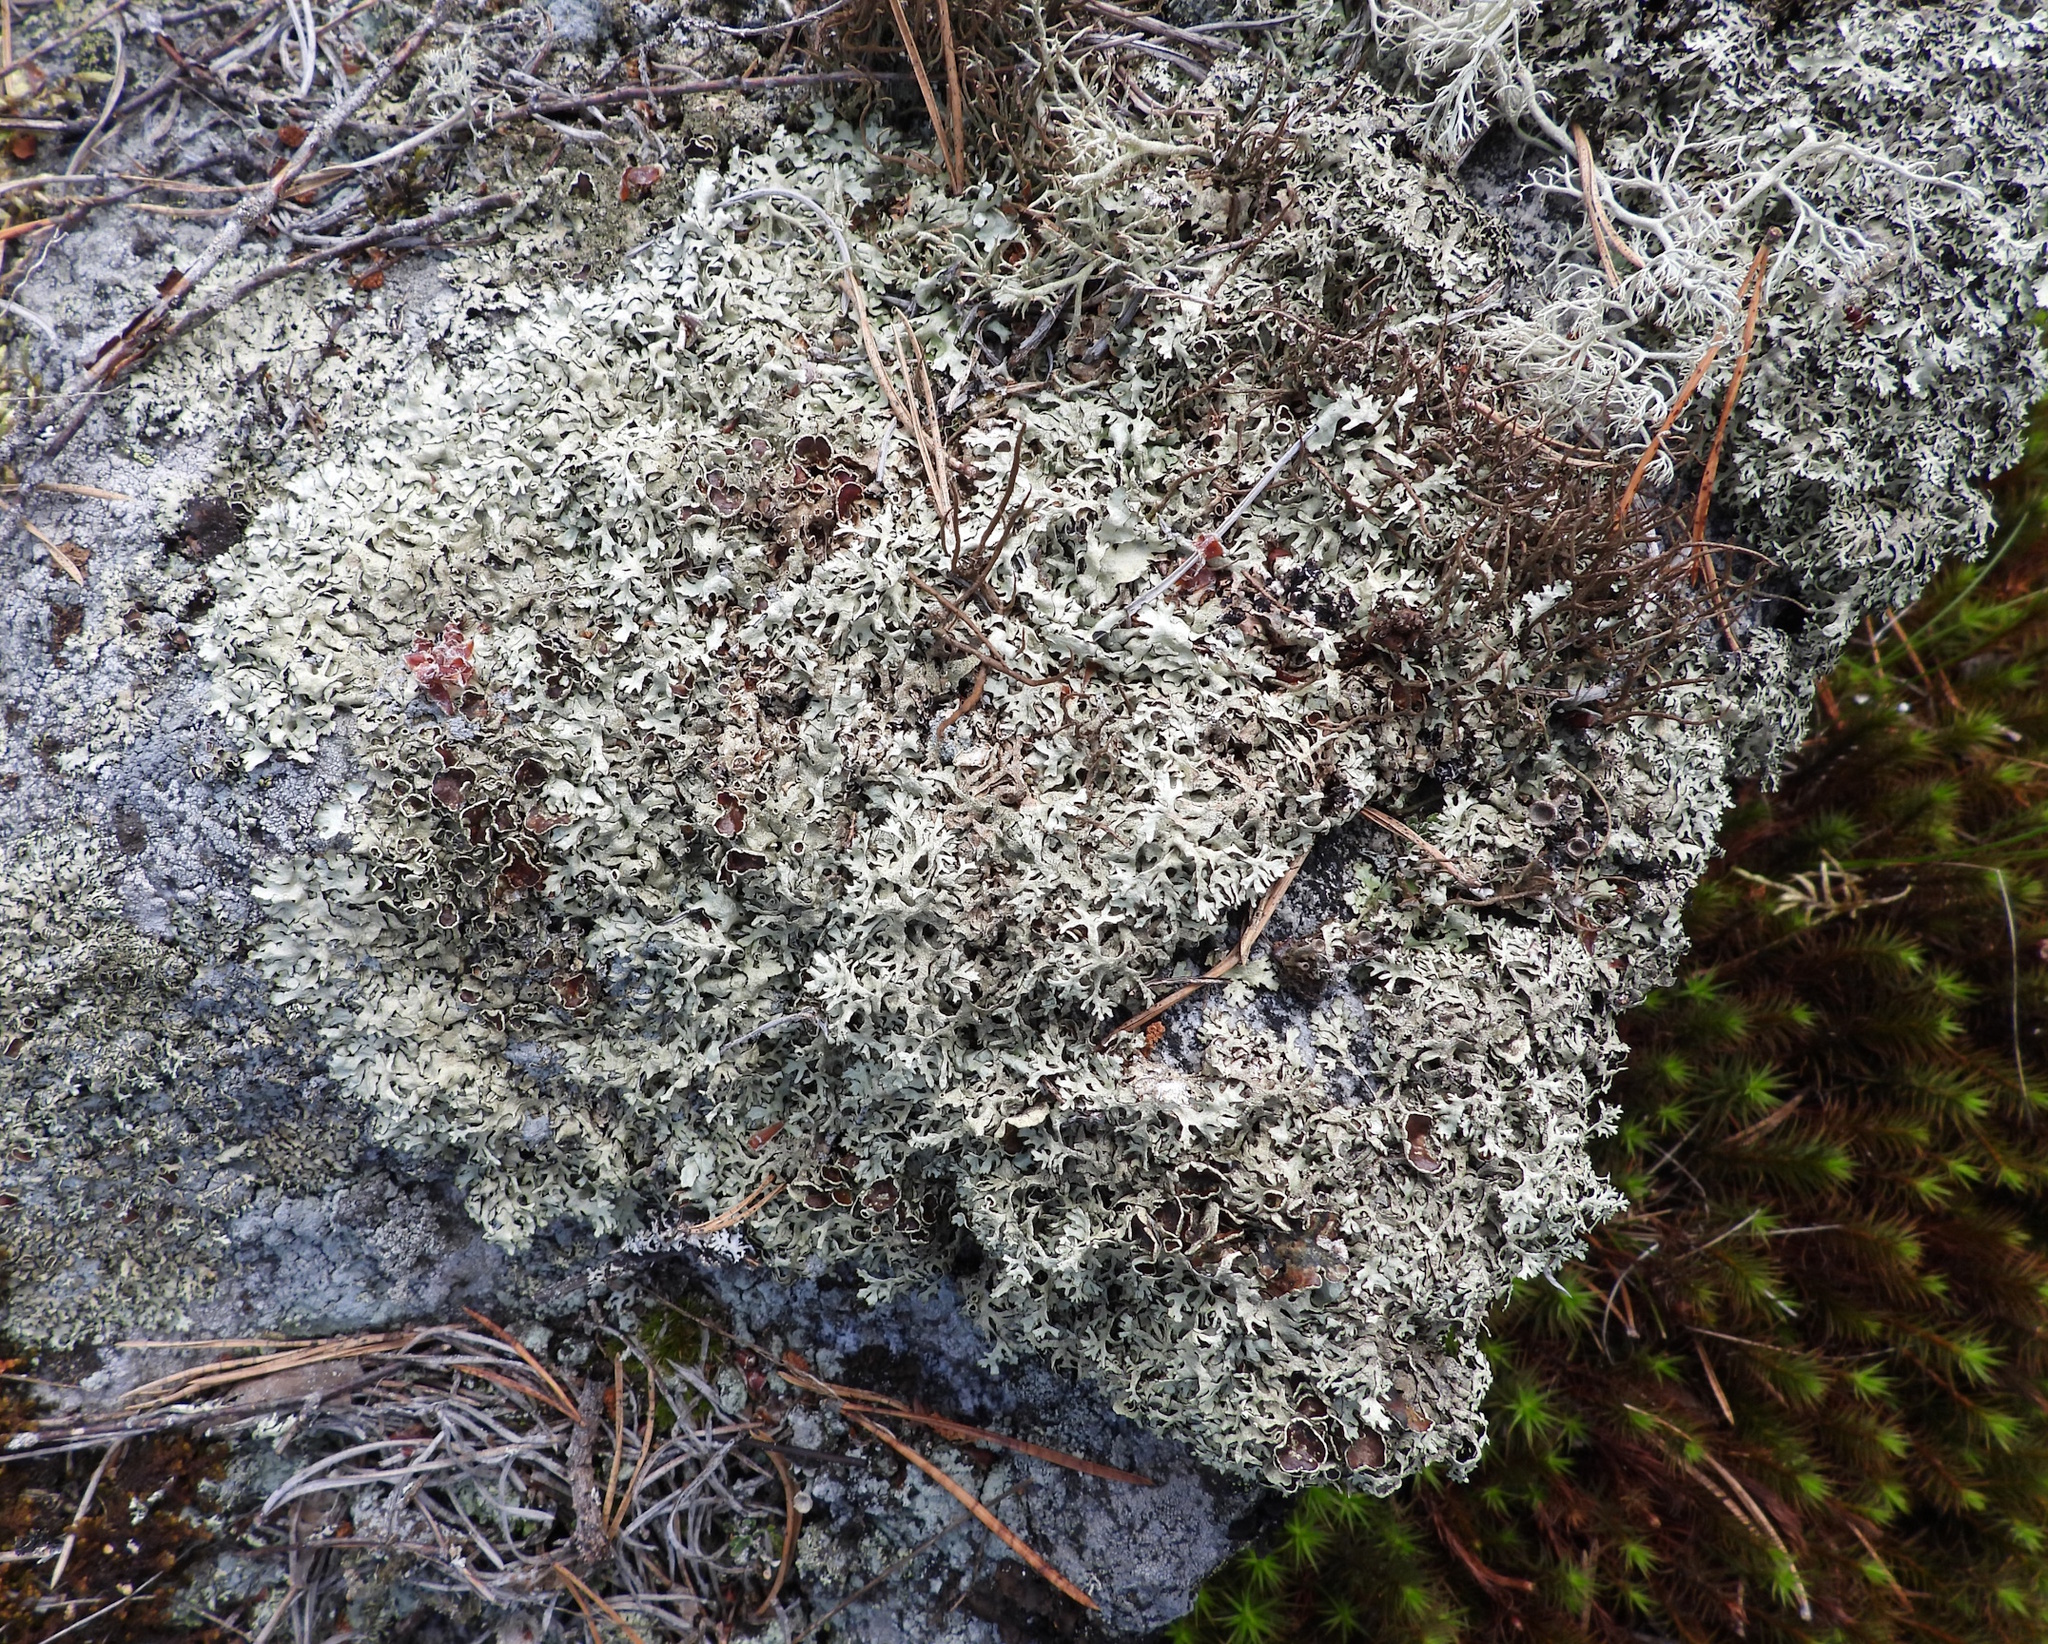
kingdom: Fungi
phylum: Ascomycota
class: Lecanoromycetes
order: Lecanorales
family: Parmeliaceae
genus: Xanthoparmelia
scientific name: Xanthoparmelia stenophylla
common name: Shingled rock shield
